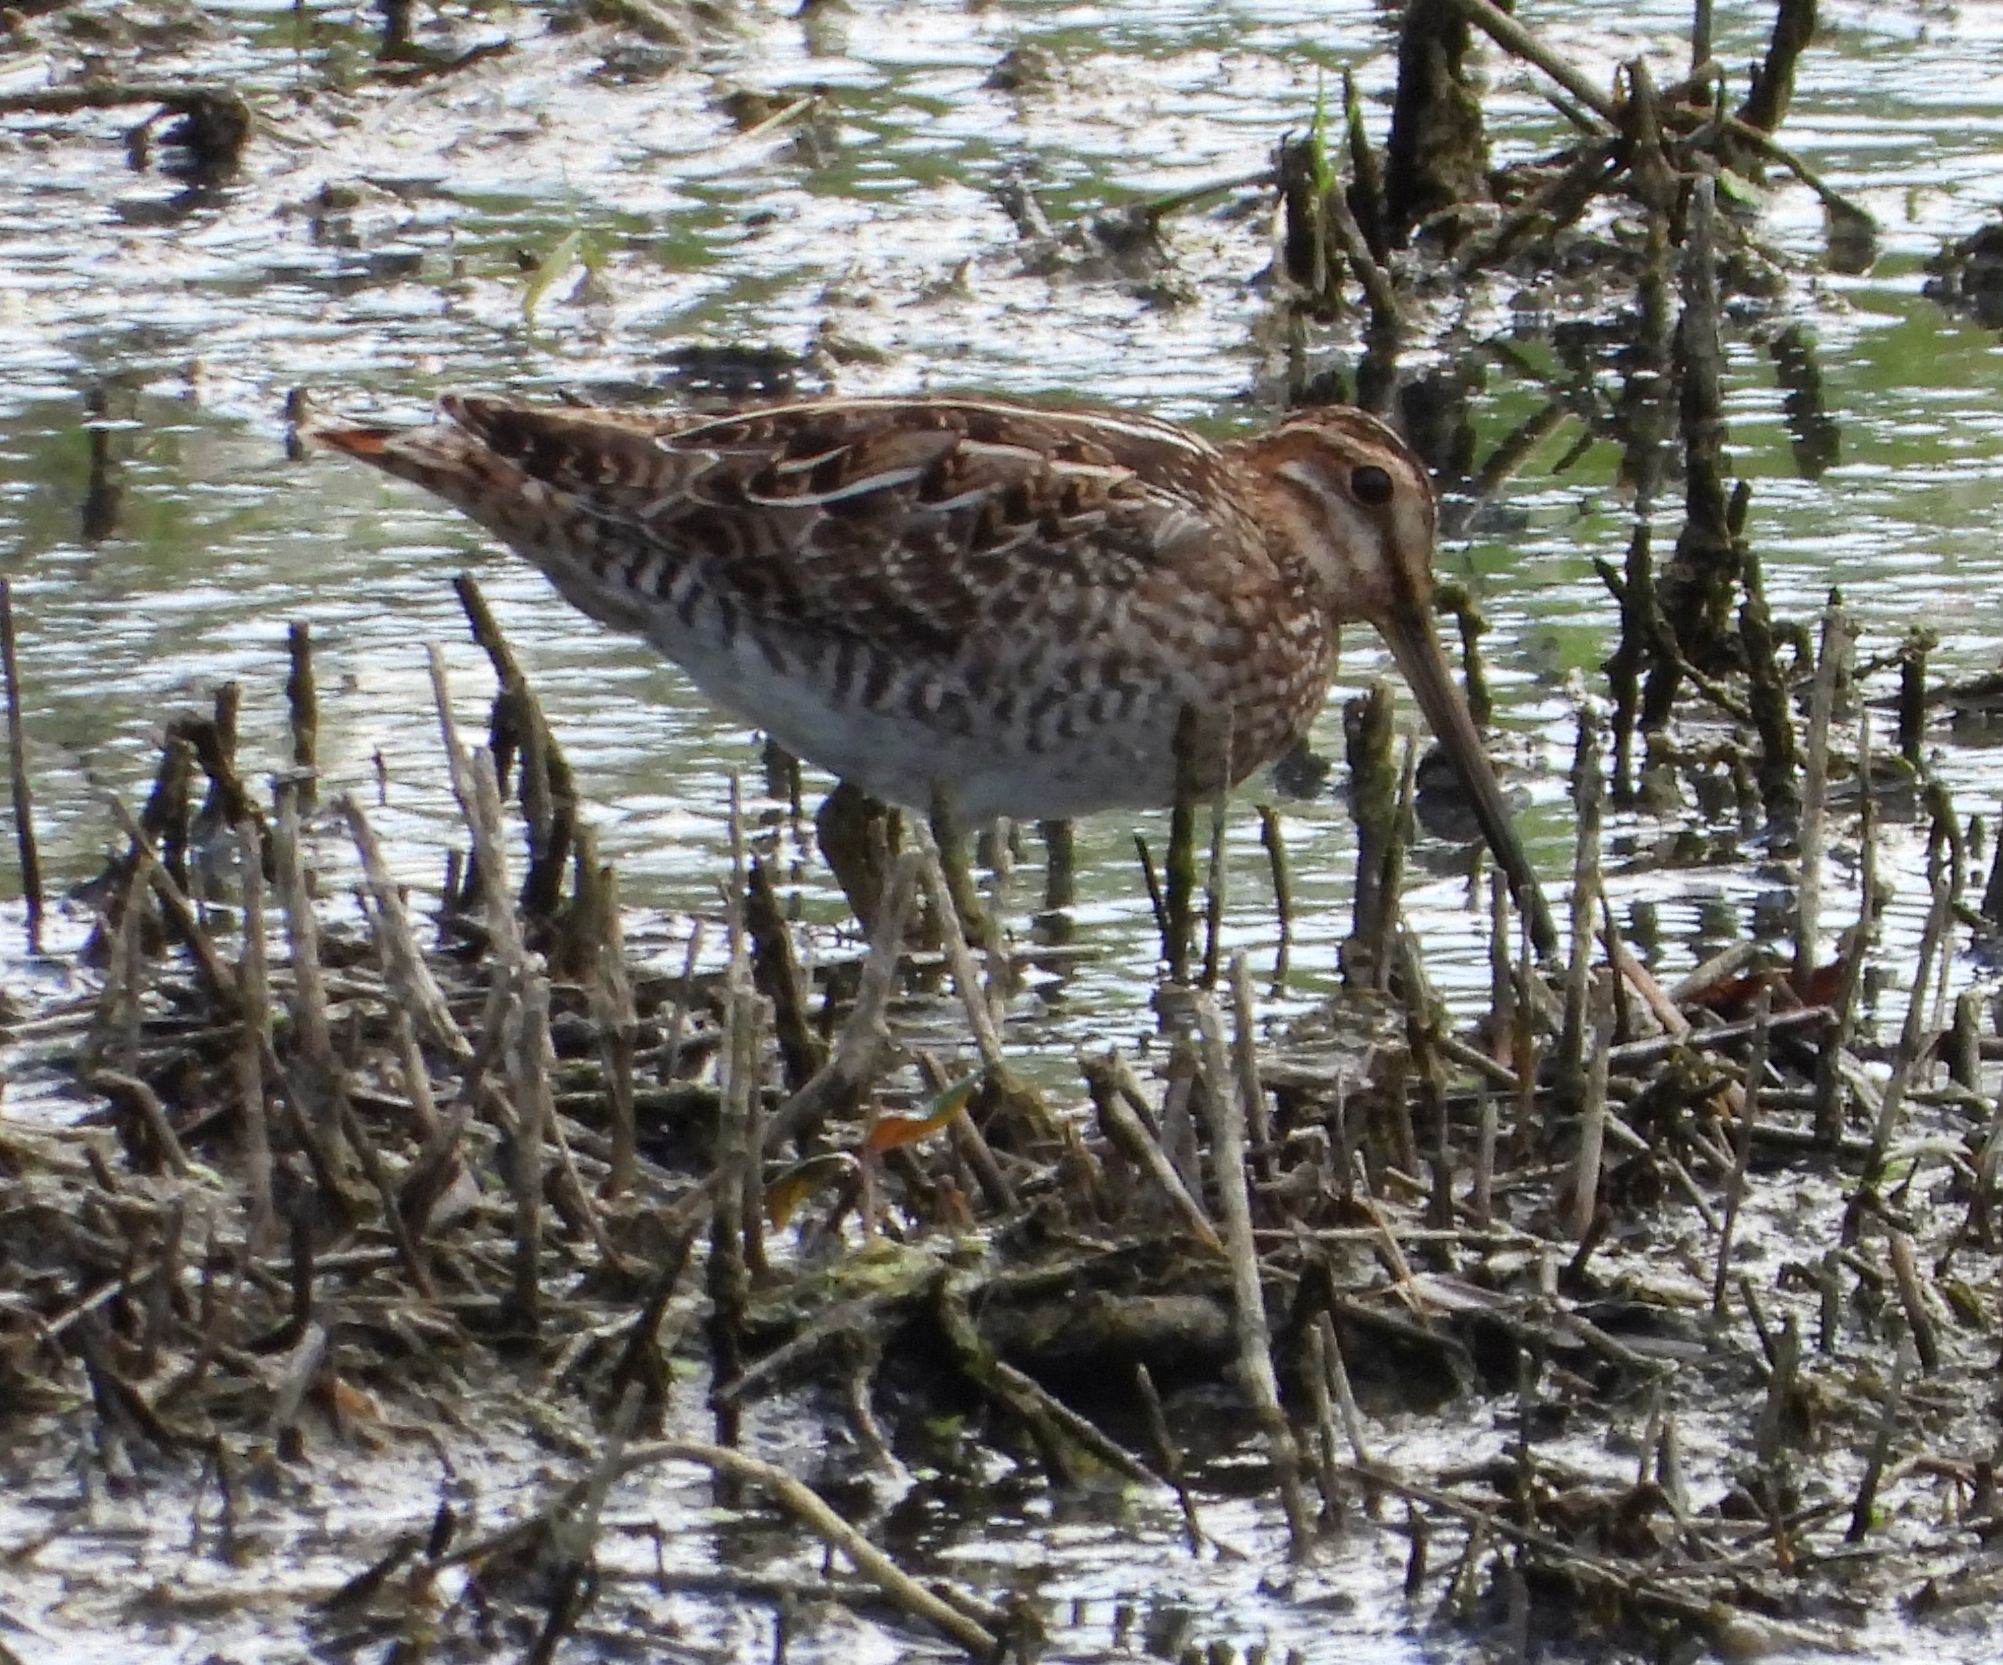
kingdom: Animalia
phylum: Chordata
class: Aves
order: Charadriiformes
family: Scolopacidae
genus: Gallinago
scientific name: Gallinago delicata
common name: Wilson's snipe
